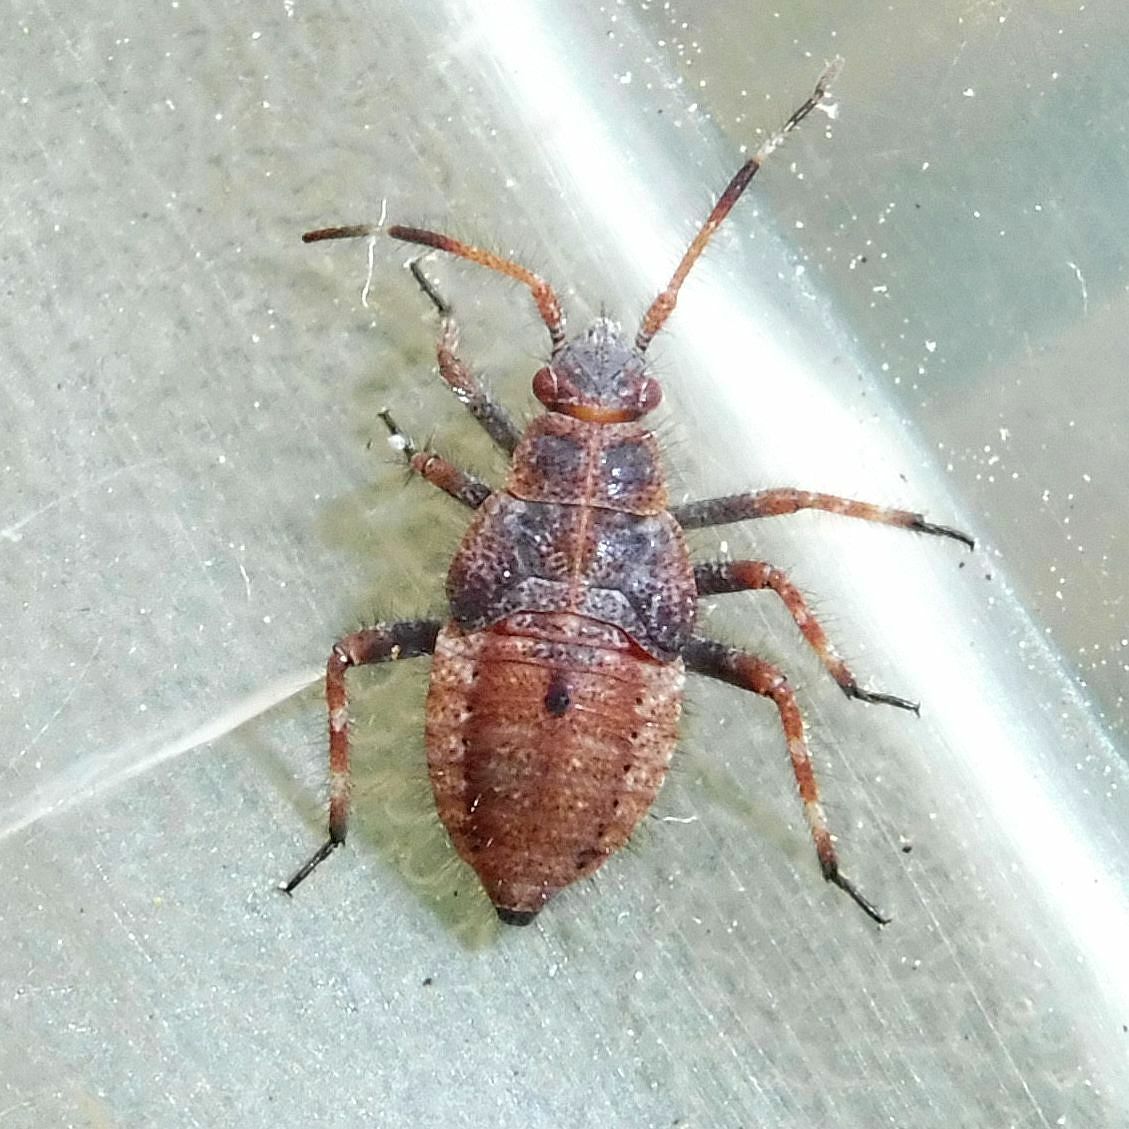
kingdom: Animalia
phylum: Arthropoda
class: Insecta
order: Hemiptera
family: Miridae
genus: Deraeocoris
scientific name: Deraeocoris olivaceus
